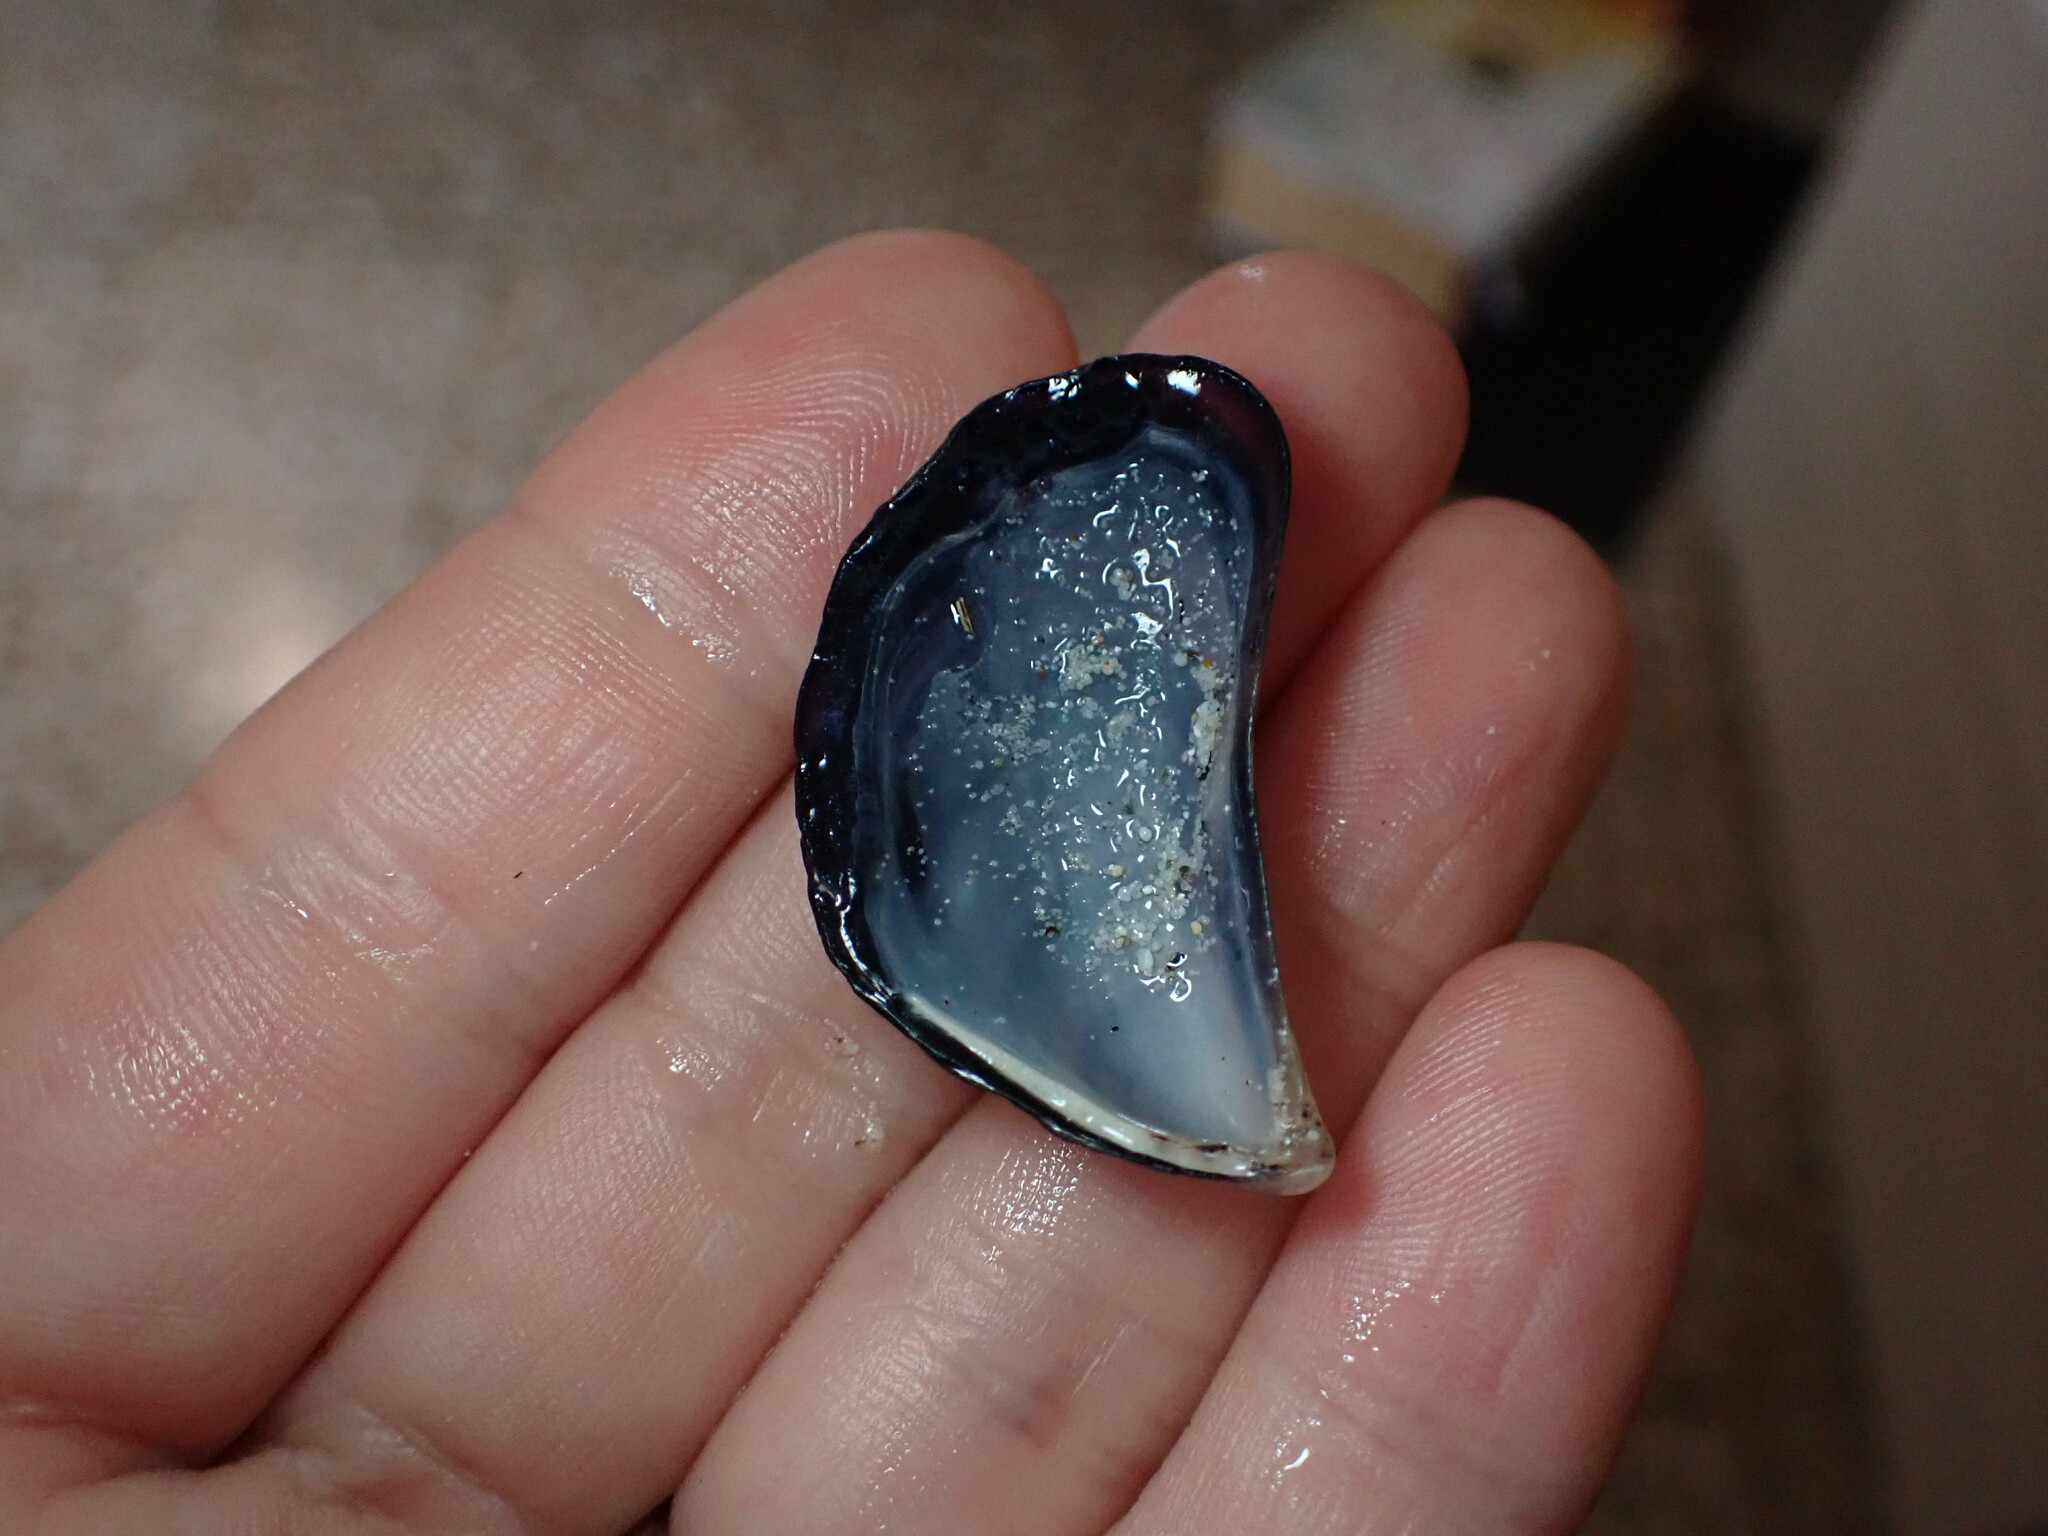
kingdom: Animalia
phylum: Mollusca
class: Bivalvia
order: Mytilida
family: Mytilidae
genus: Mytilus
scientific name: Mytilus galloprovincialis
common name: Mediterranean mussel
